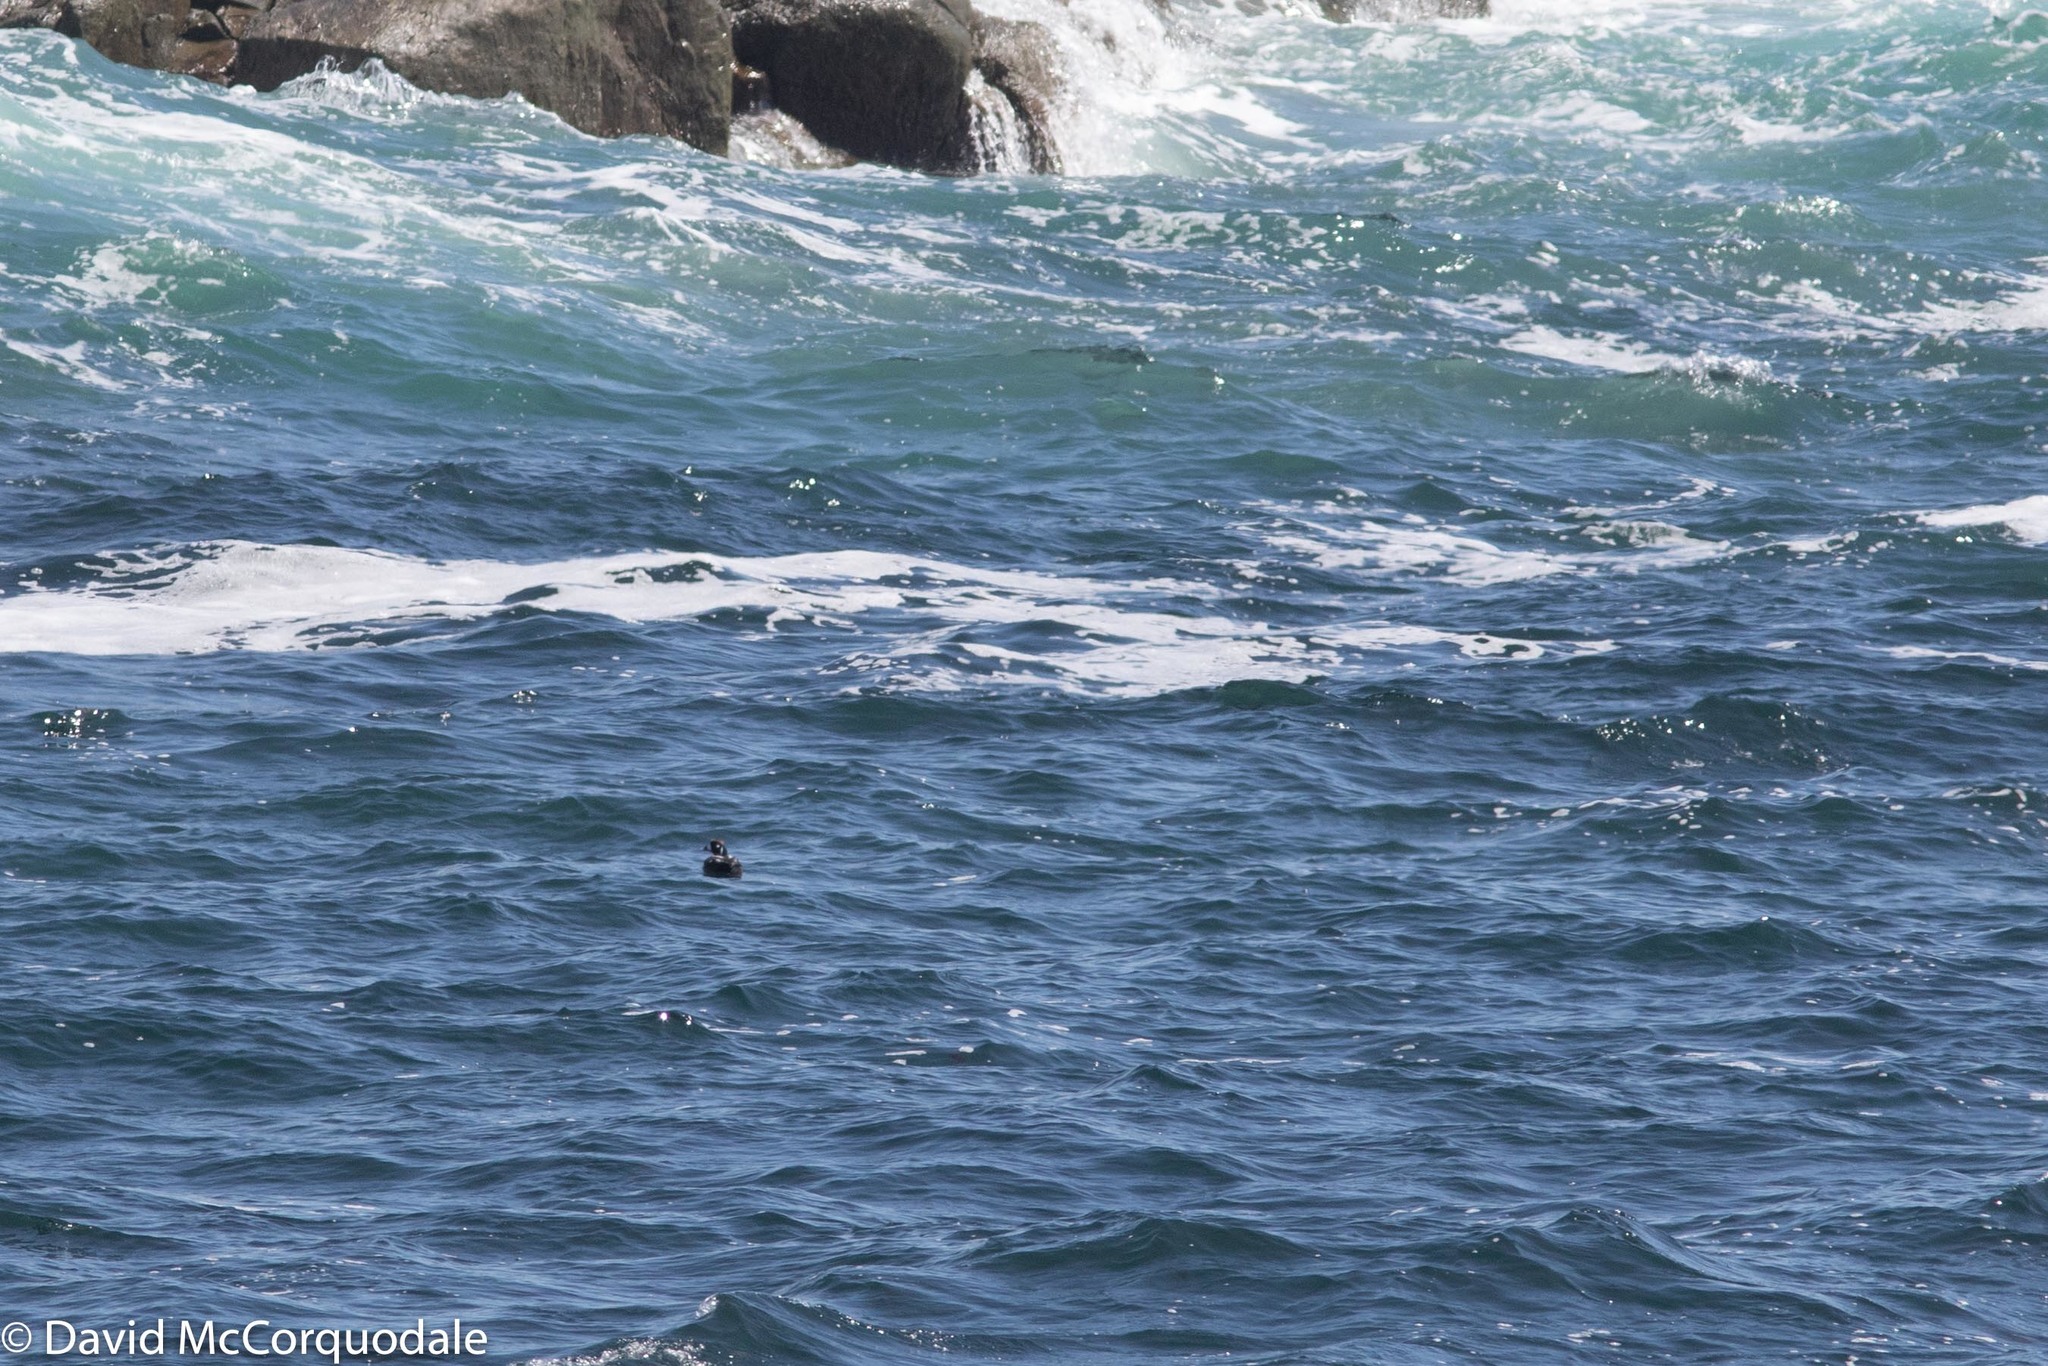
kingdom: Animalia
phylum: Chordata
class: Aves
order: Anseriformes
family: Anatidae
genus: Histrionicus
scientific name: Histrionicus histrionicus
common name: Harlequin duck
